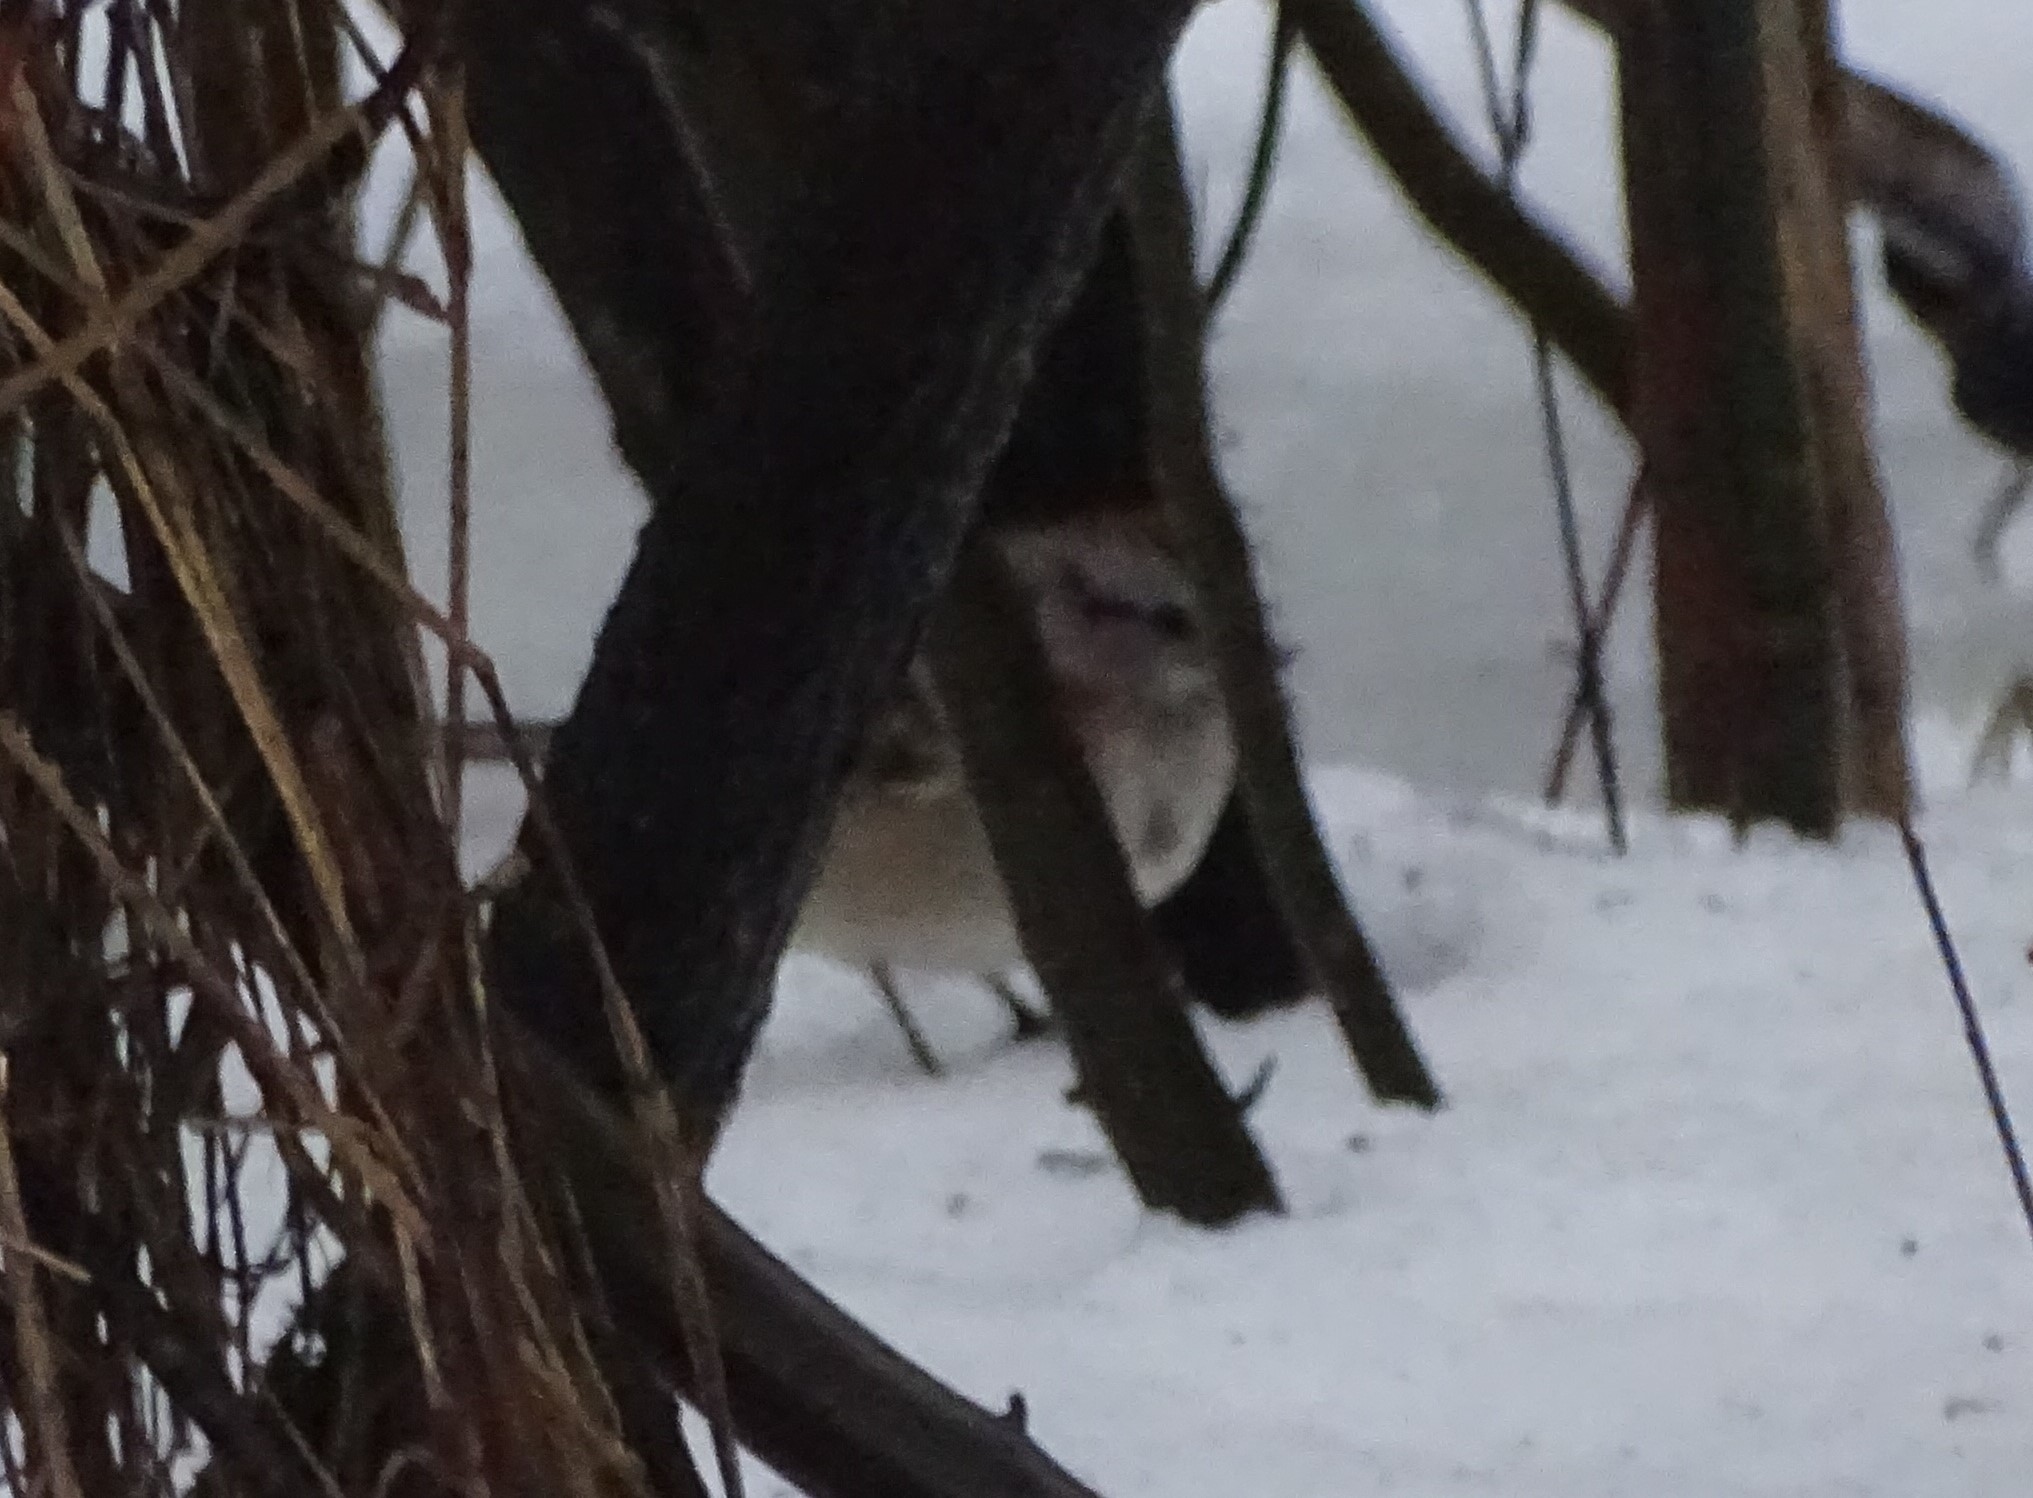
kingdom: Animalia
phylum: Chordata
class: Aves
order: Passeriformes
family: Passerellidae
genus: Spizelloides
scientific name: Spizelloides arborea
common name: American tree sparrow
